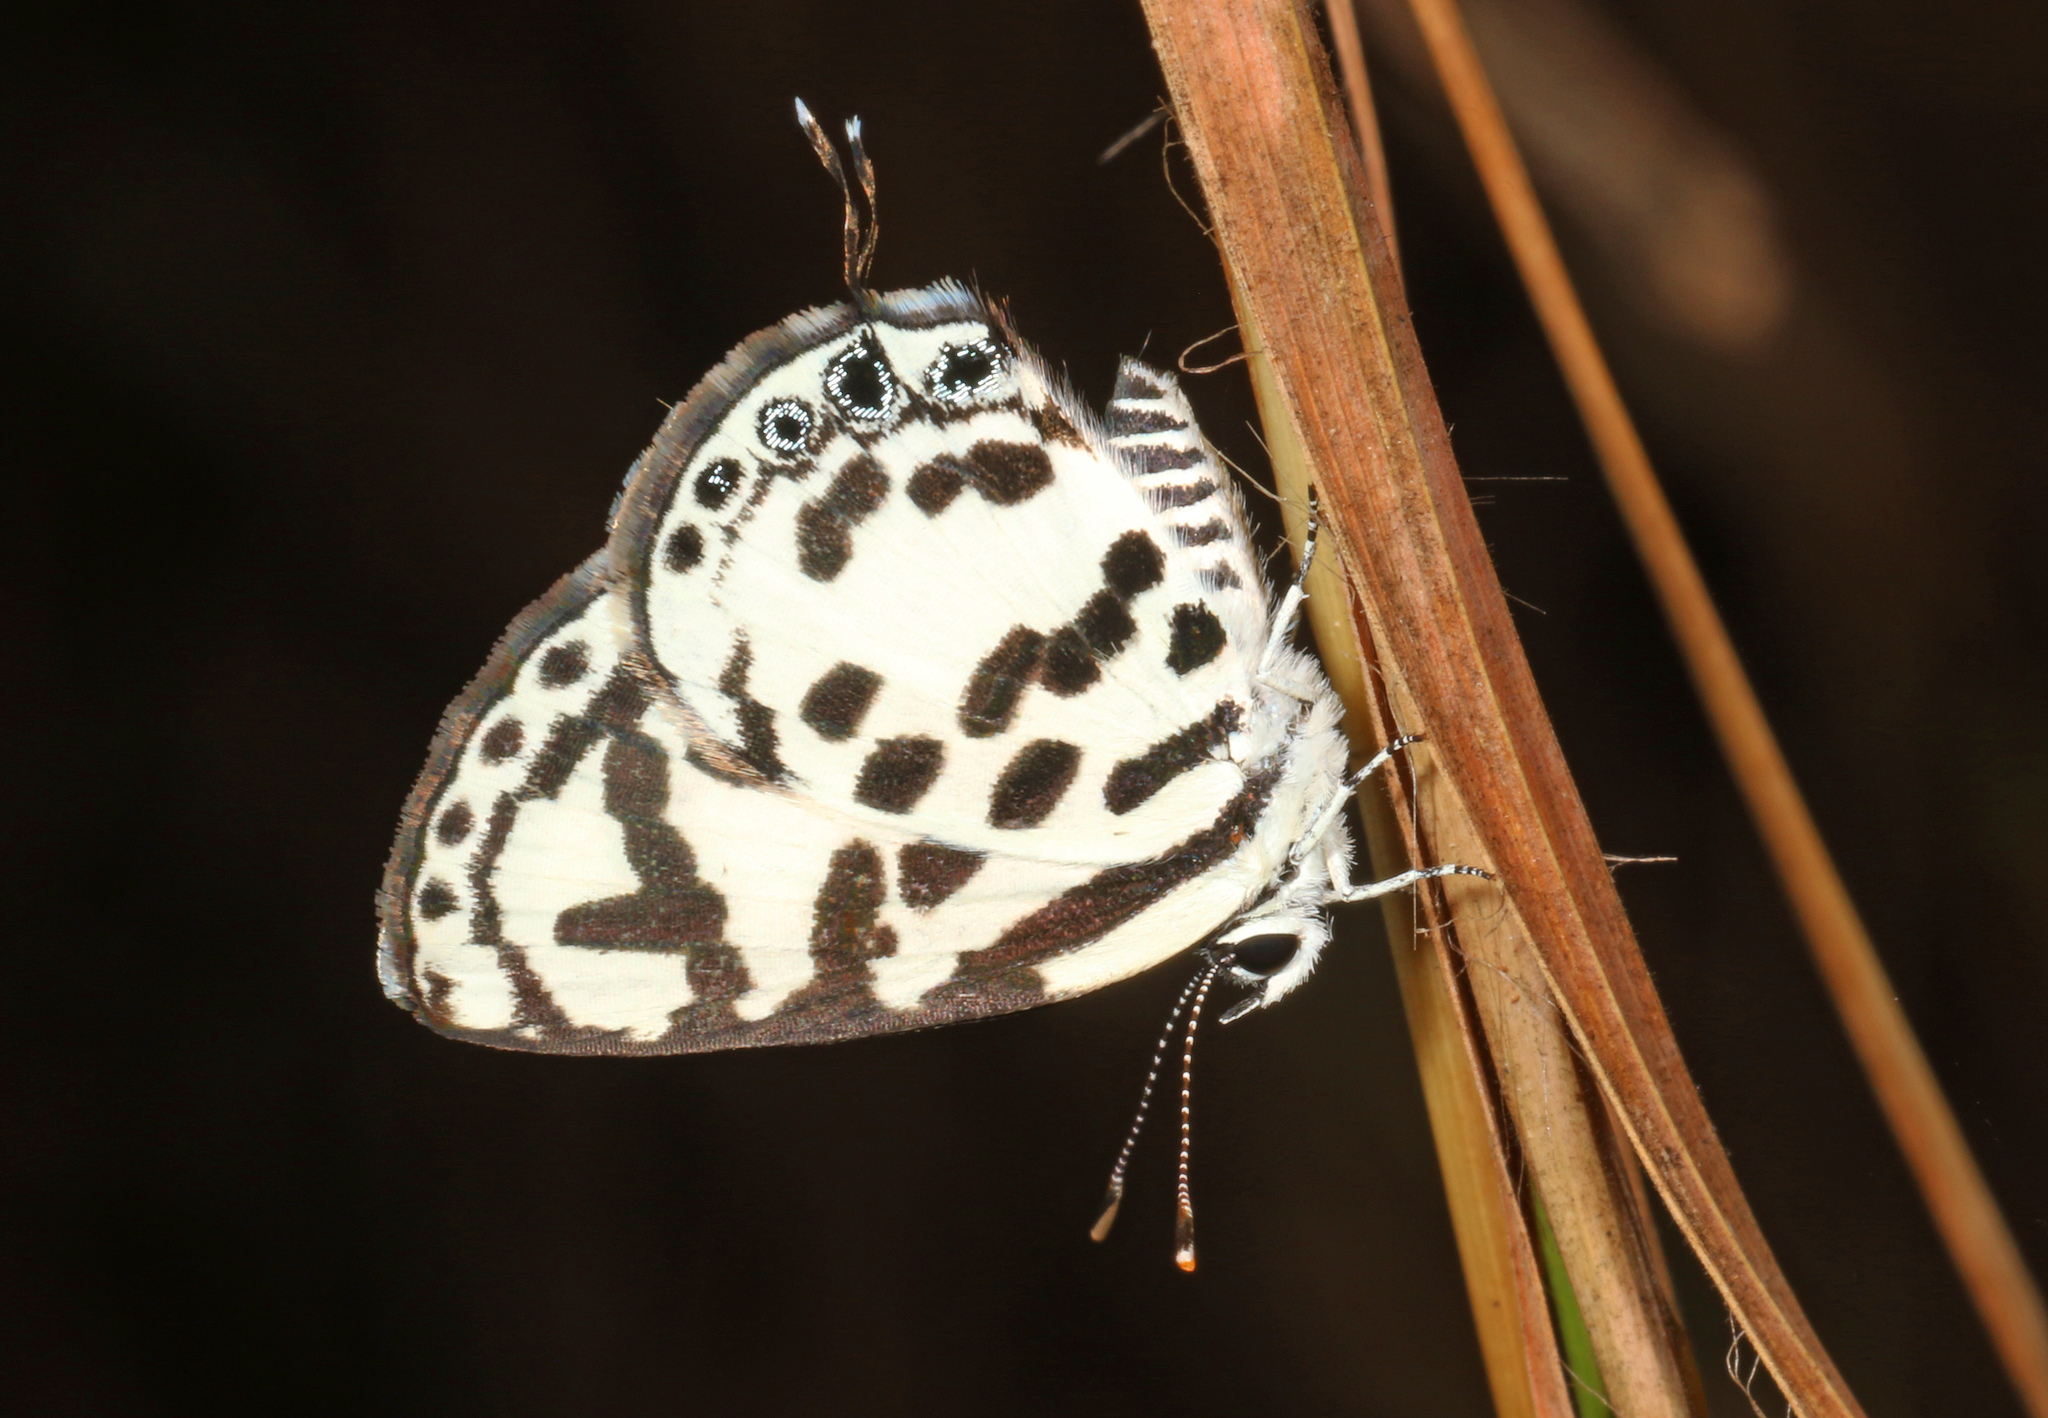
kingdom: Animalia
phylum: Arthropoda
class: Insecta
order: Lepidoptera
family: Lycaenidae
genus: Castalius
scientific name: Castalius calice
